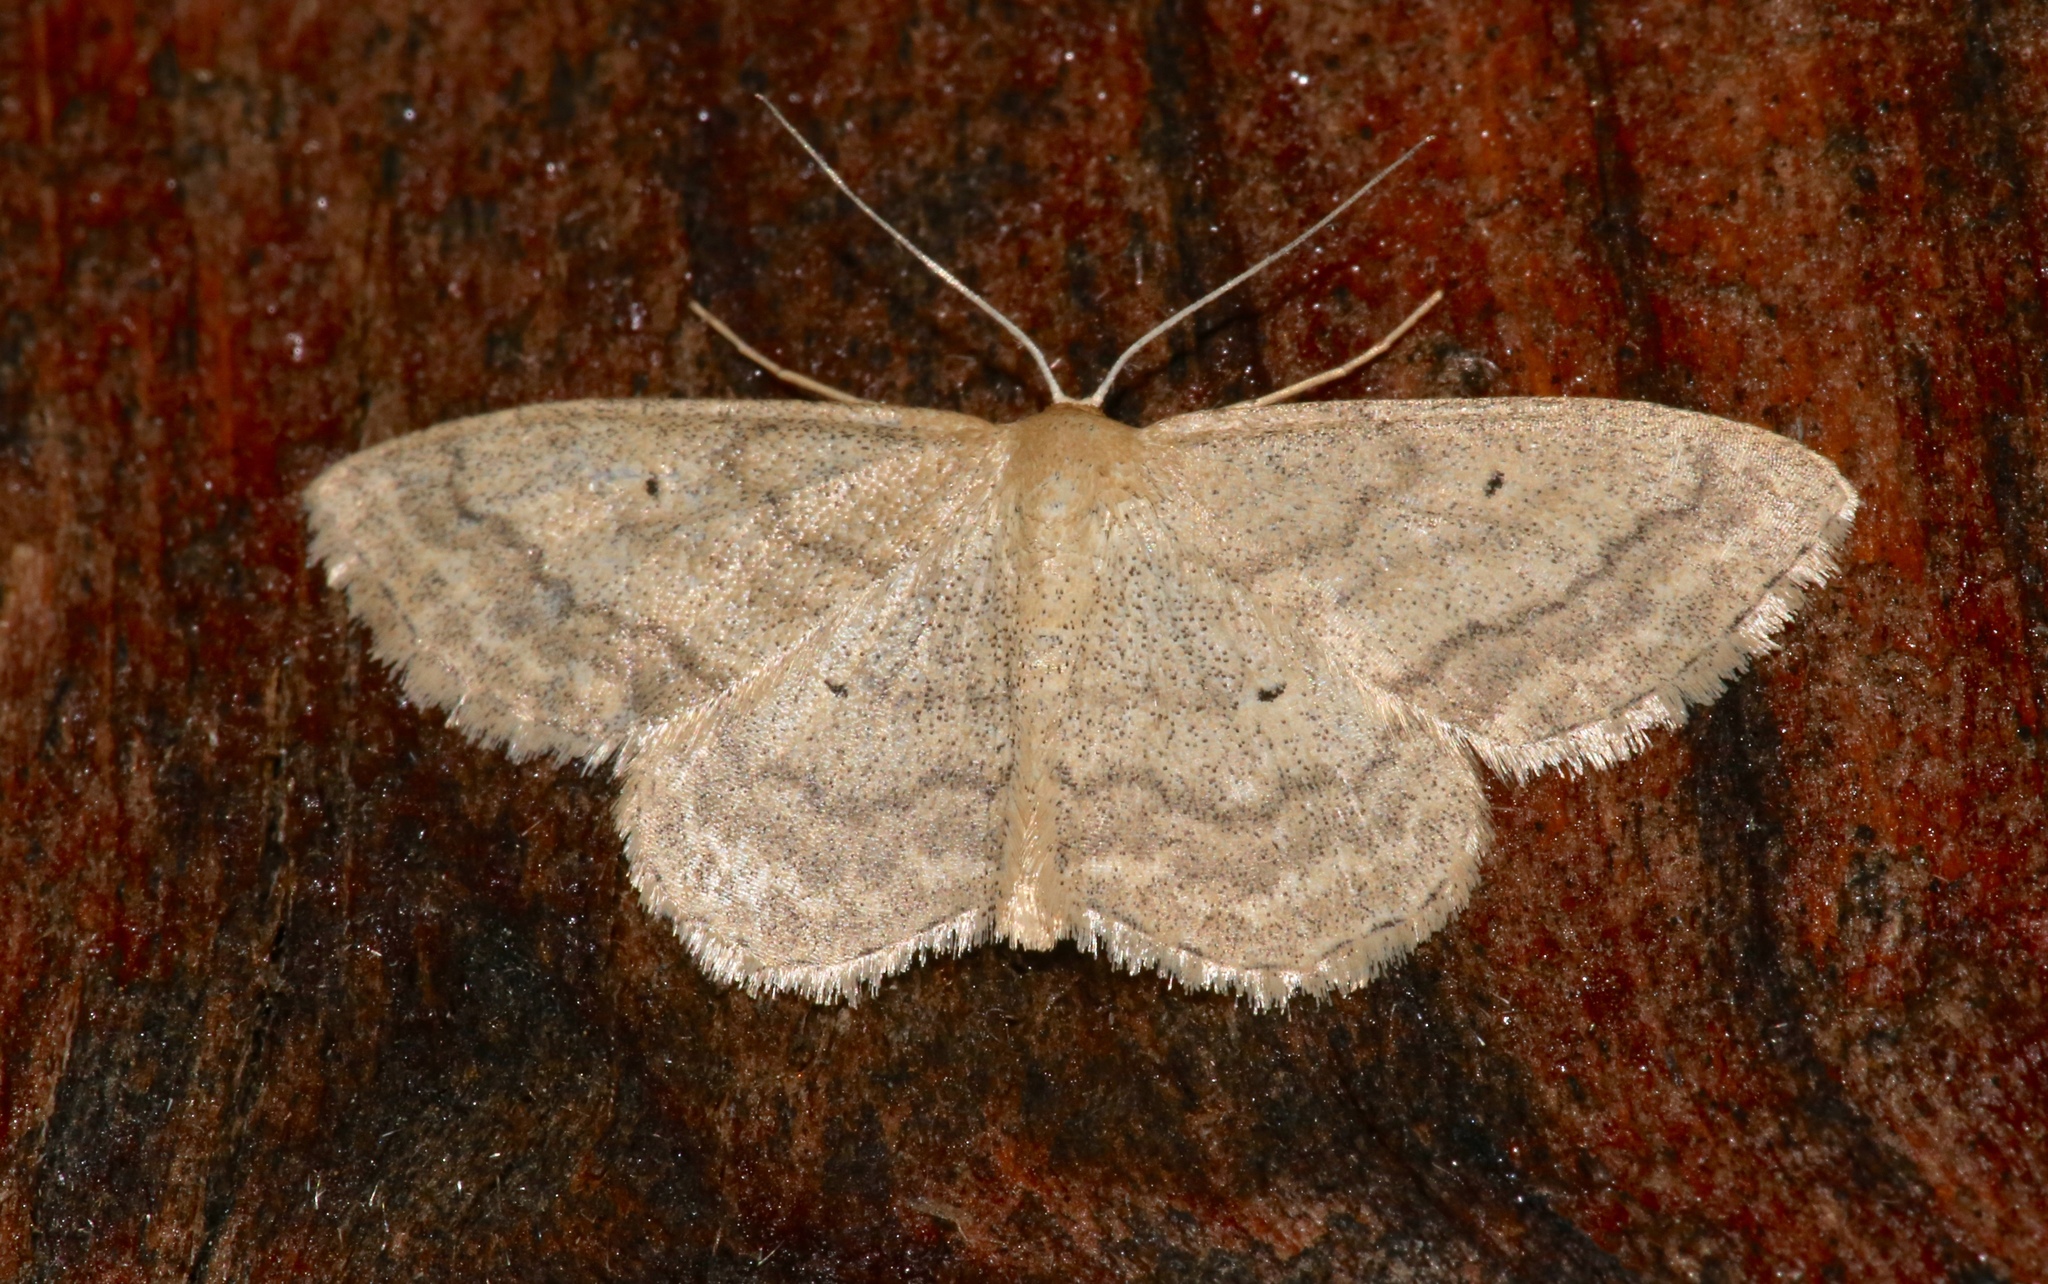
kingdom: Animalia
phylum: Arthropoda
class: Insecta
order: Lepidoptera
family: Geometridae
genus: Scopula
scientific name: Scopula inductata
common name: Soft-lined wave
